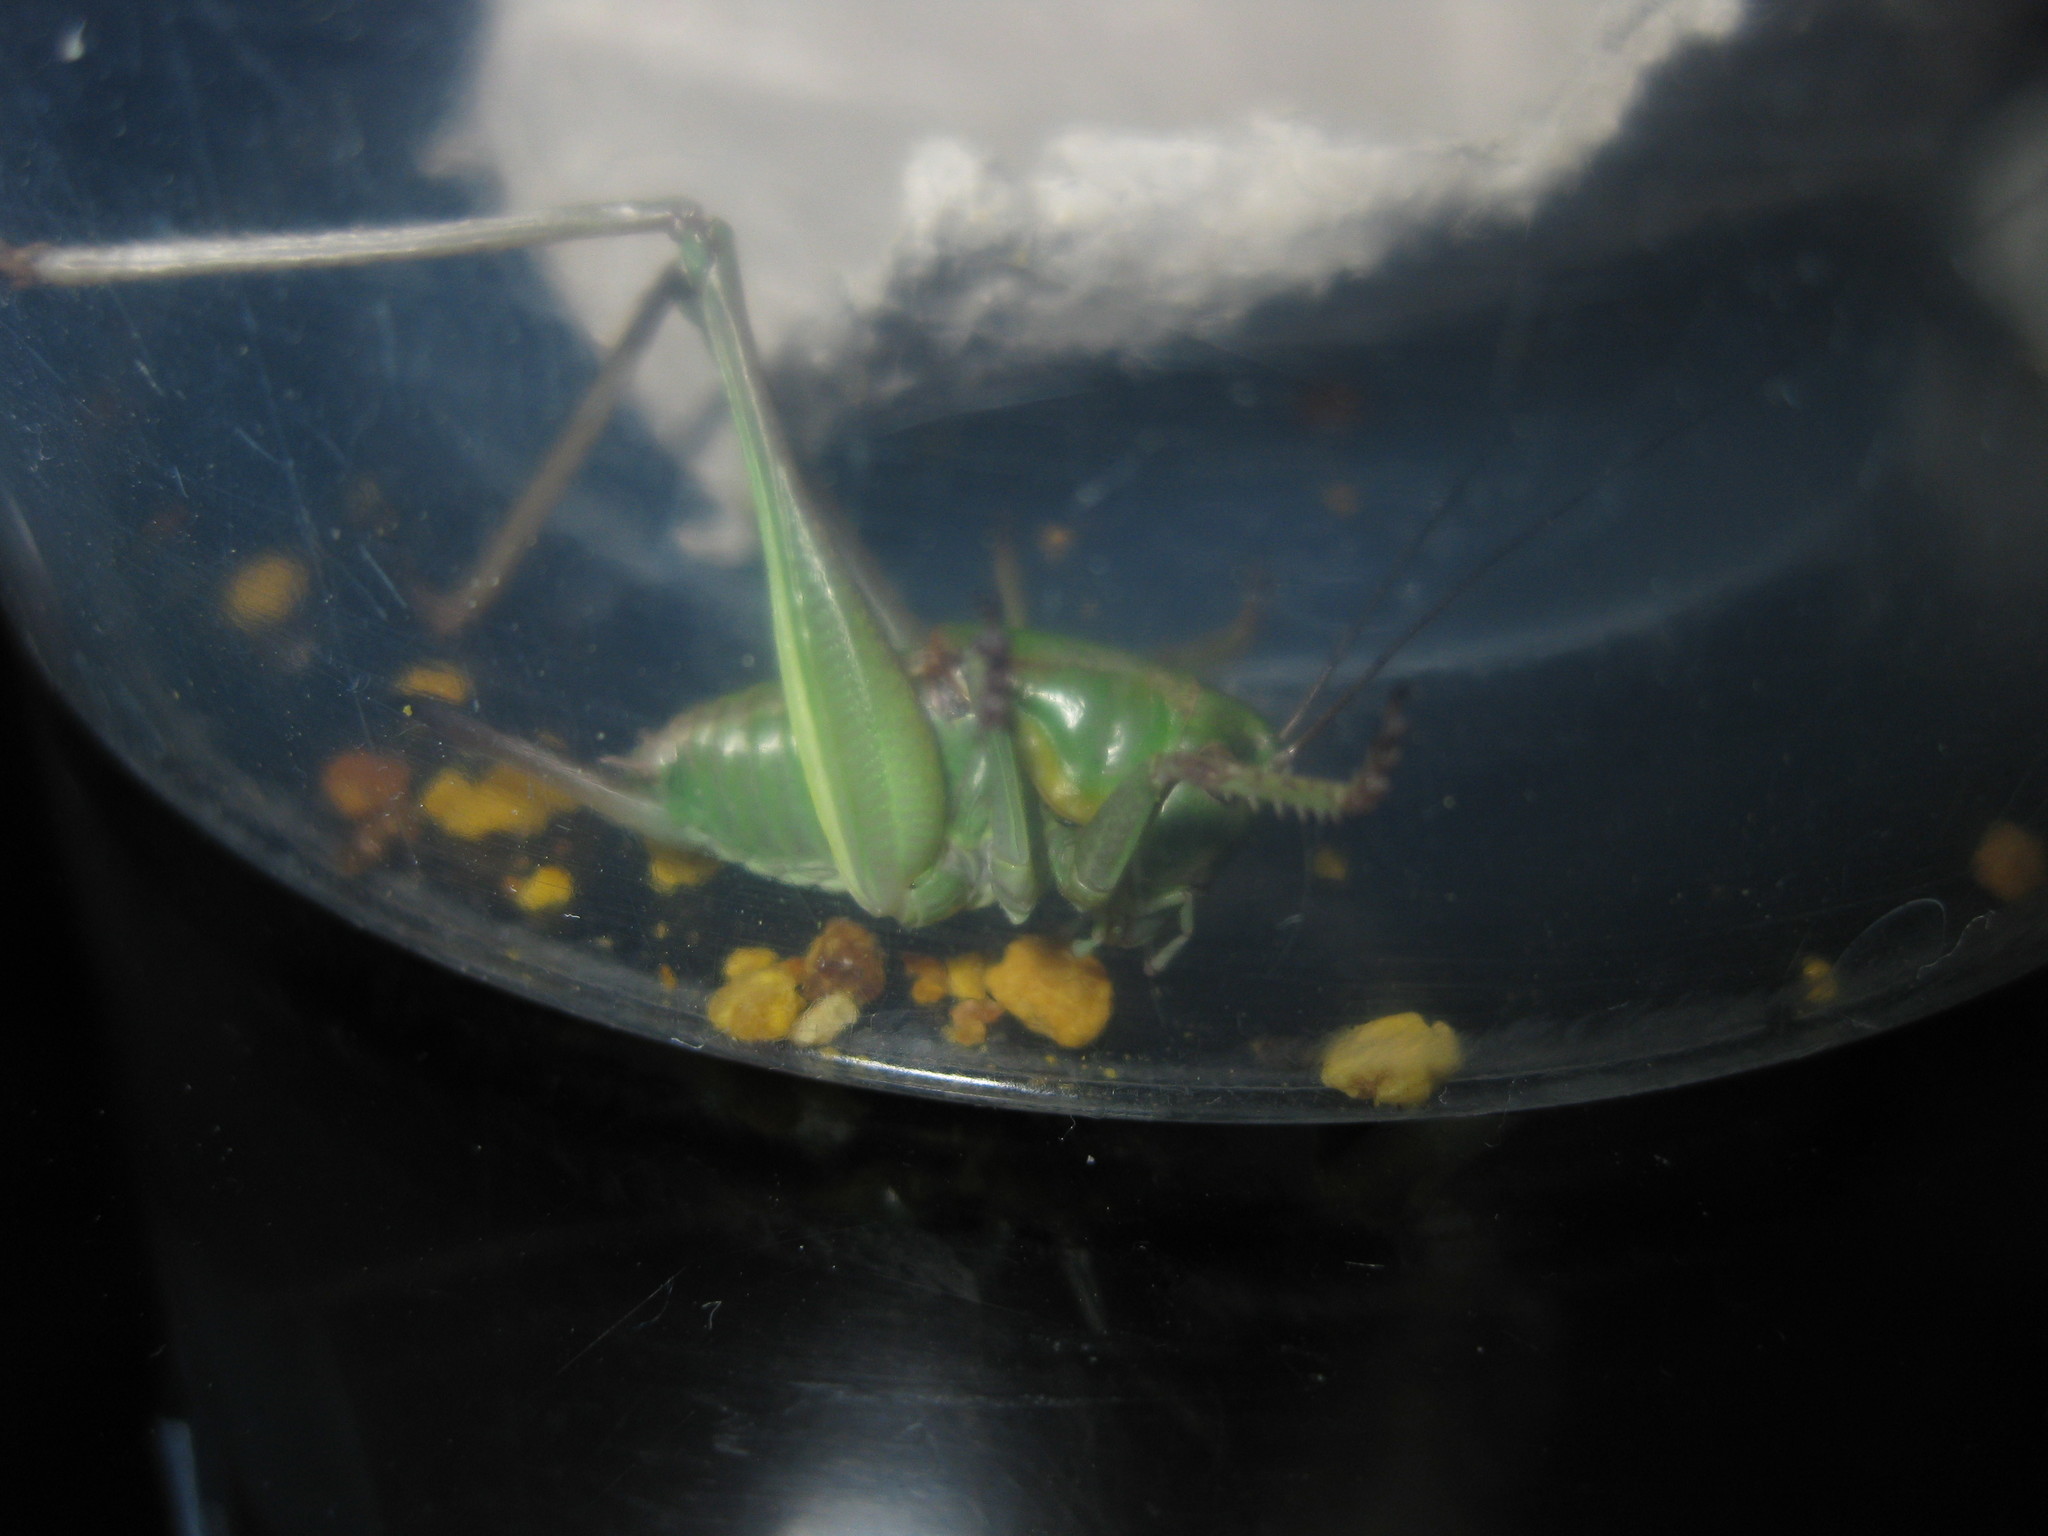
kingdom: Animalia
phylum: Arthropoda
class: Insecta
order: Orthoptera
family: Tettigoniidae
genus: Anabrus
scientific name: Anabrus longipes
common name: Long-legged anabrus
